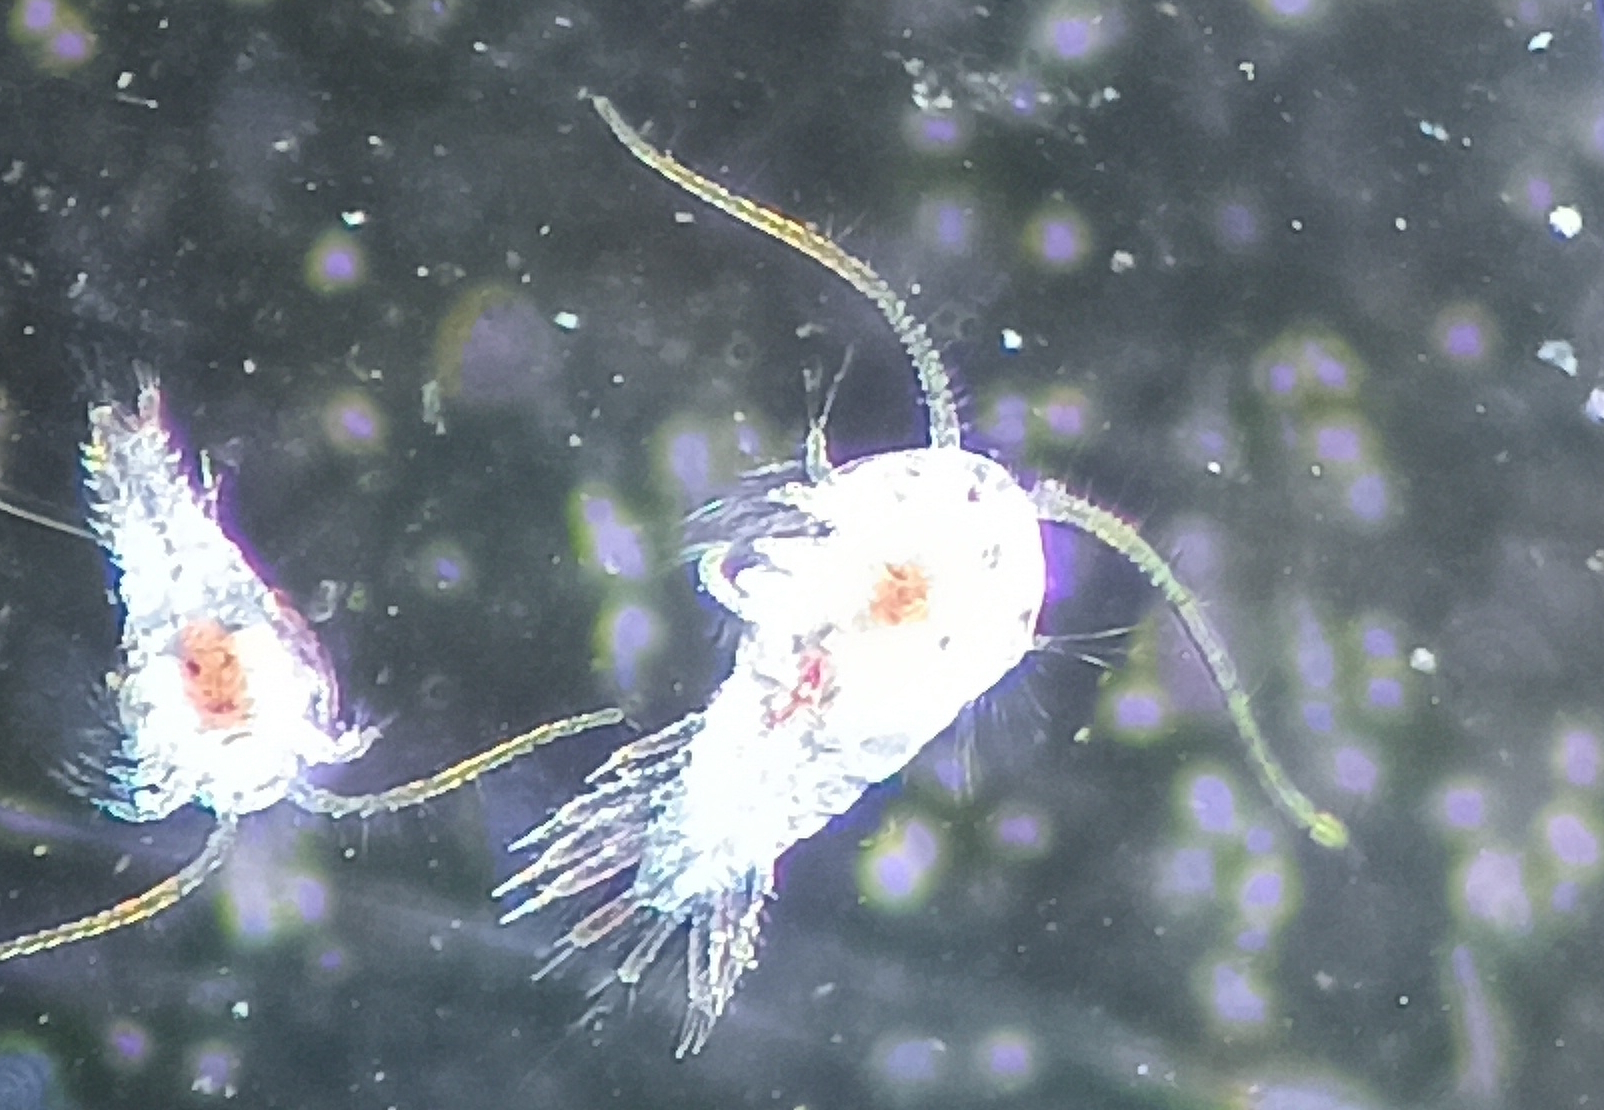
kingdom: Animalia
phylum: Arthropoda
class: Copepoda
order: Calanoida
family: Temoridae
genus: Temora
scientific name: Temora turbinata
